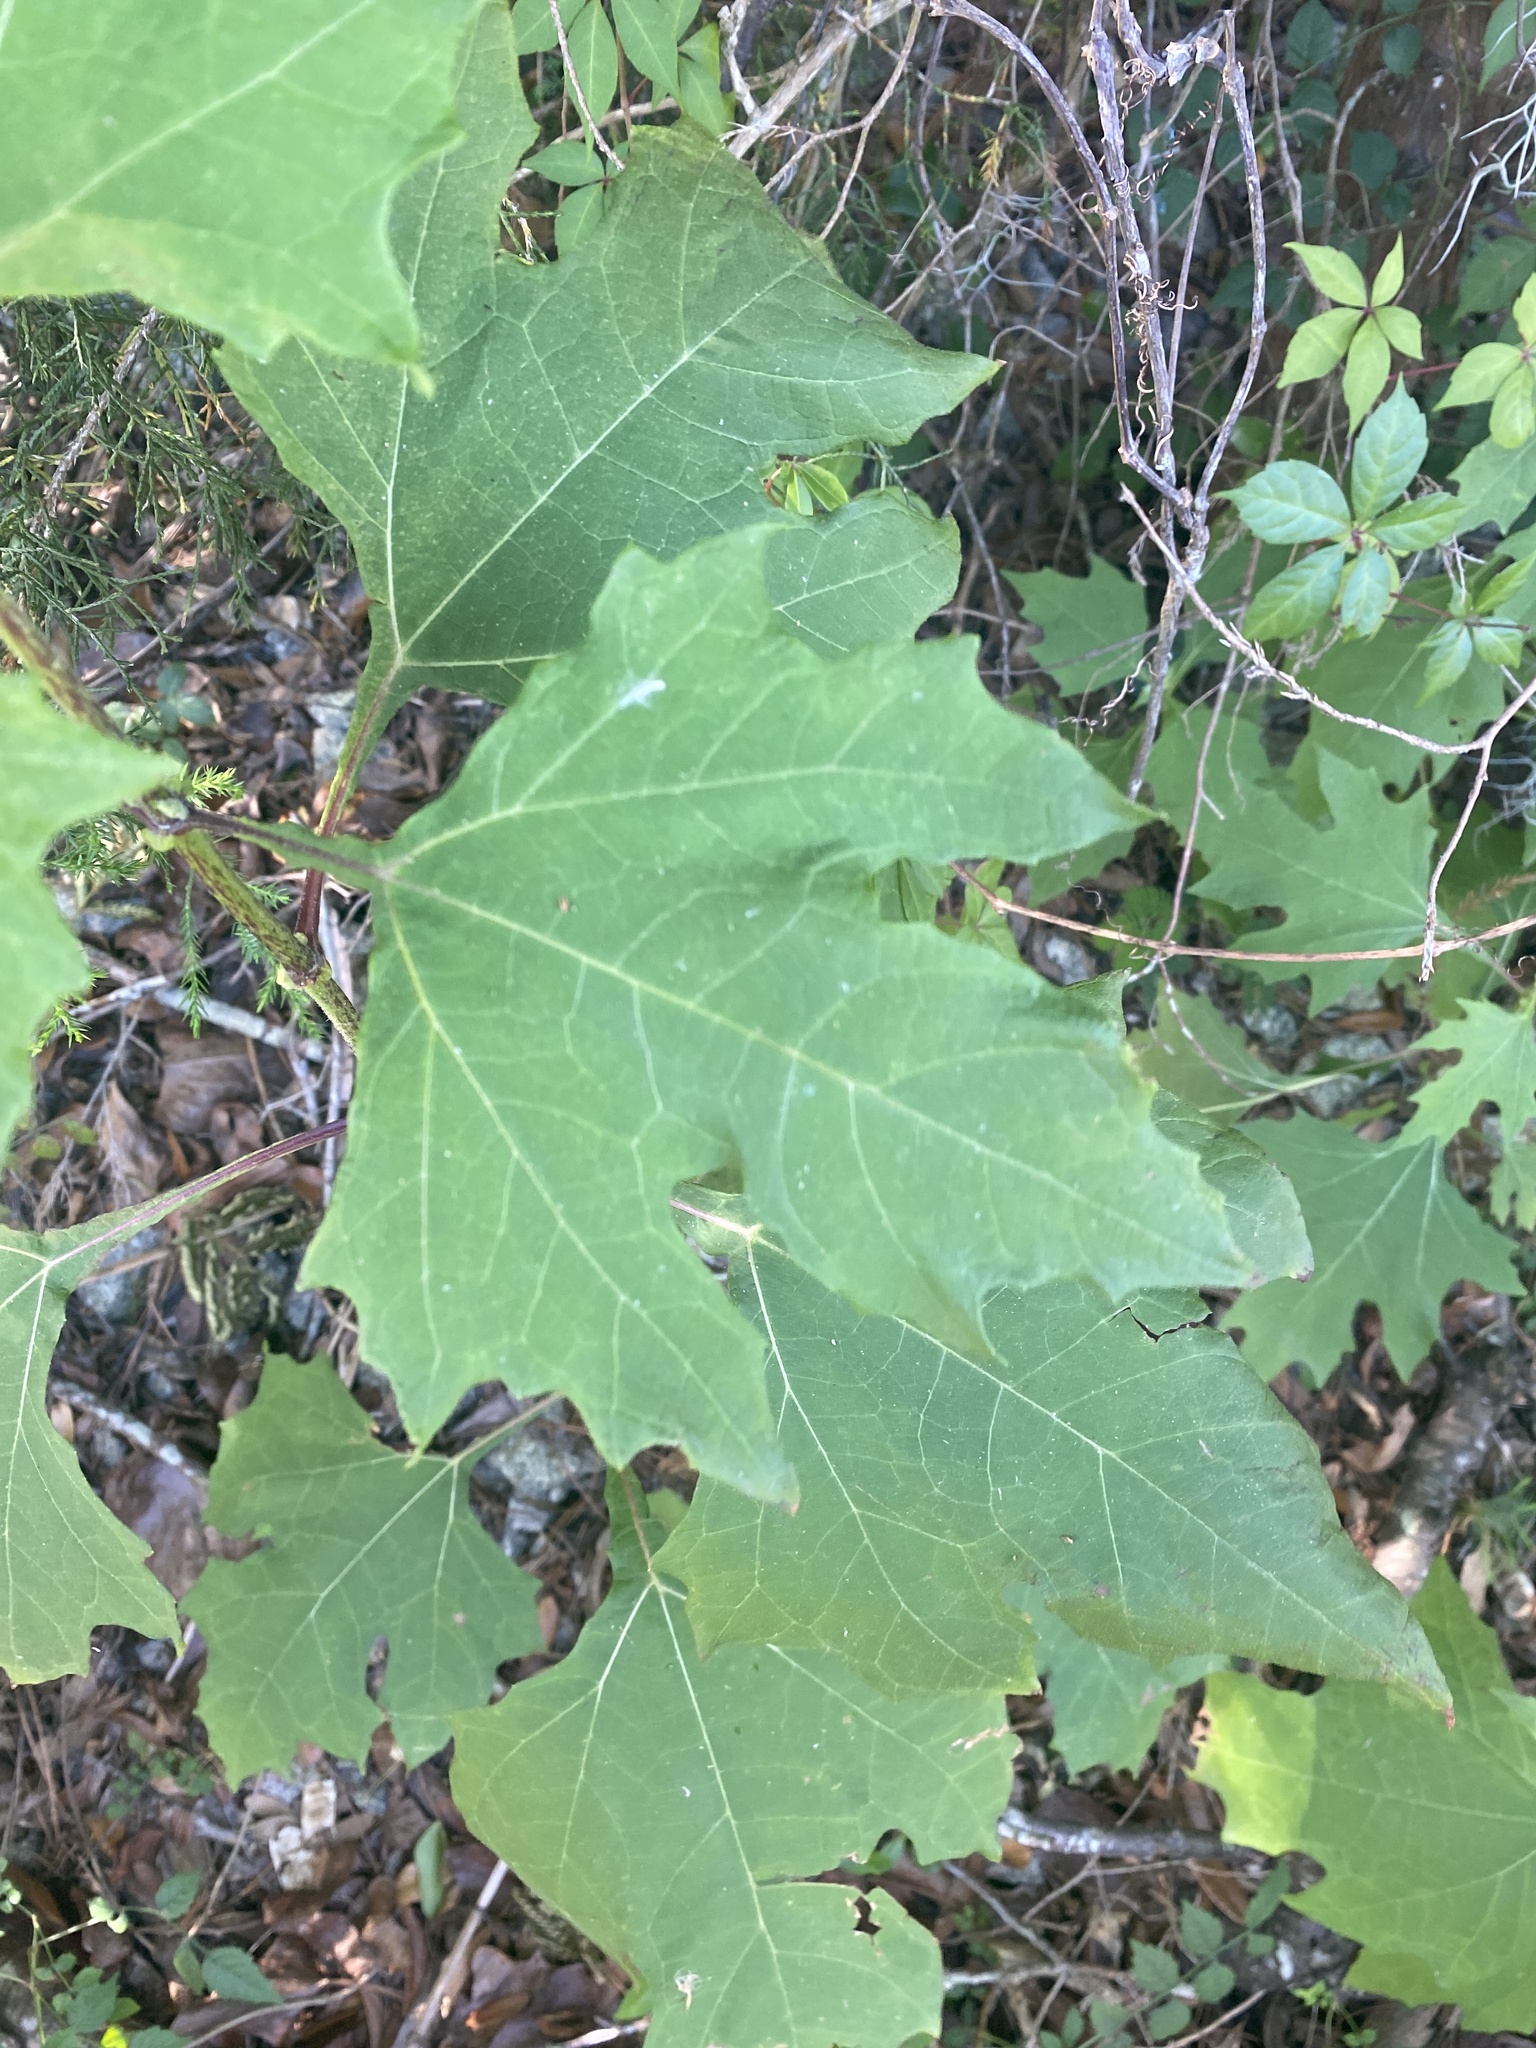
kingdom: Plantae
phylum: Tracheophyta
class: Magnoliopsida
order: Asterales
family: Asteraceae
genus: Smallanthus
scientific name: Smallanthus uvedalia
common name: Bear's-foot
